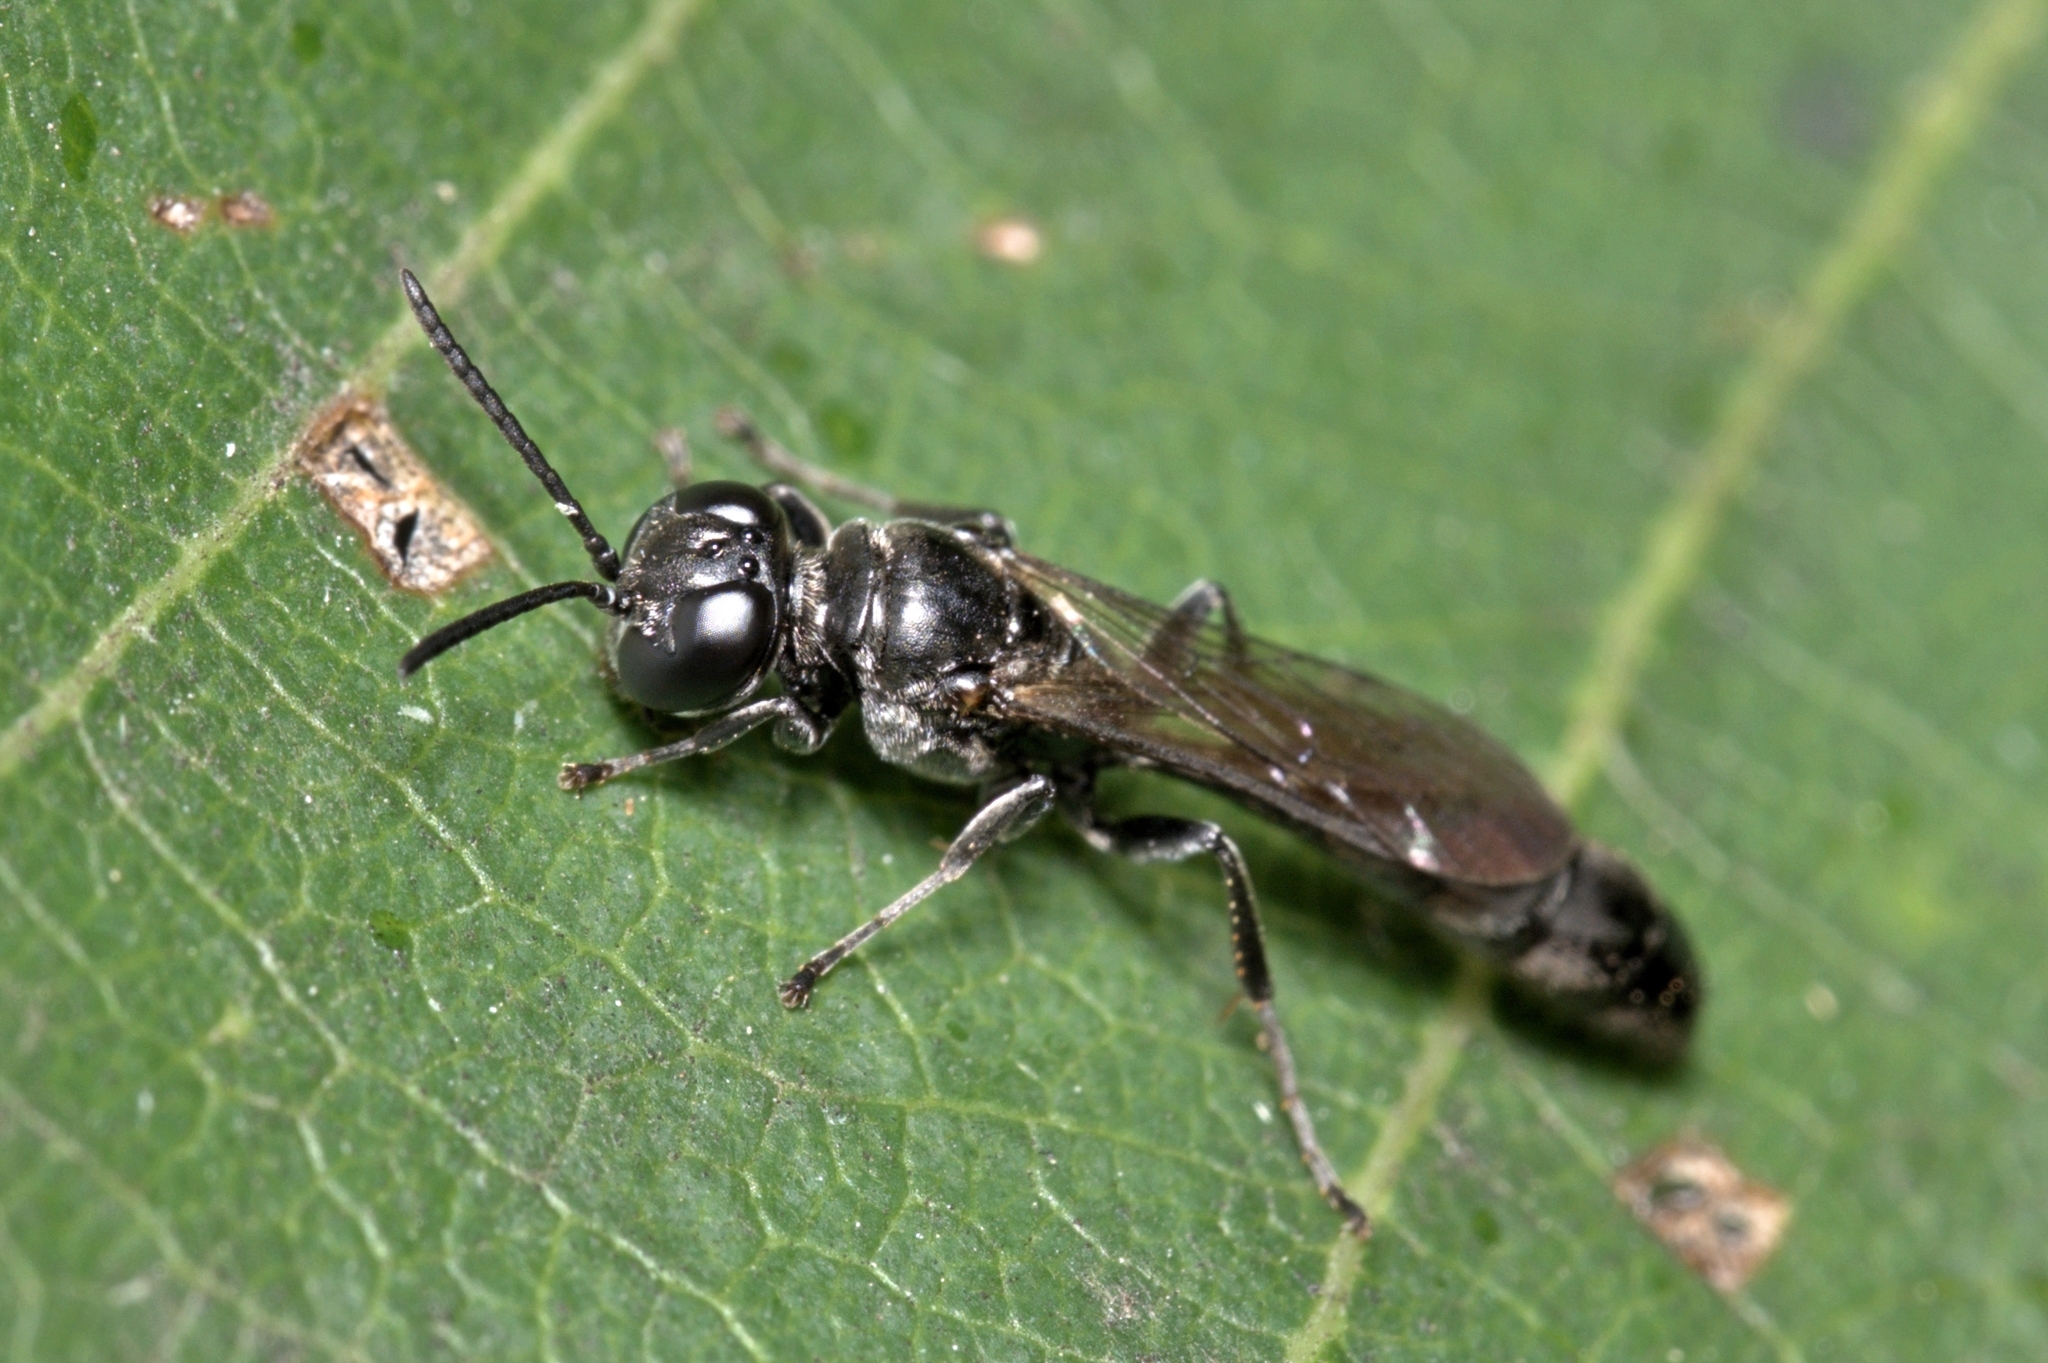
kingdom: Animalia
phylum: Arthropoda
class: Insecta
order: Hymenoptera
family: Crabronidae
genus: Trypoxylon
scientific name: Trypoxylon
